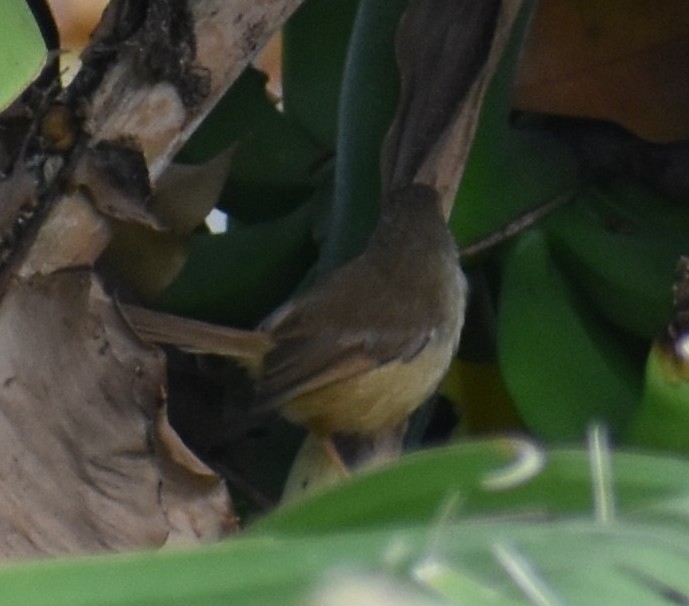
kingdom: Animalia
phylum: Chordata
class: Aves
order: Passeriformes
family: Cisticolidae
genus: Prinia
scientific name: Prinia subflava
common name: Tawny-flanked prinia
